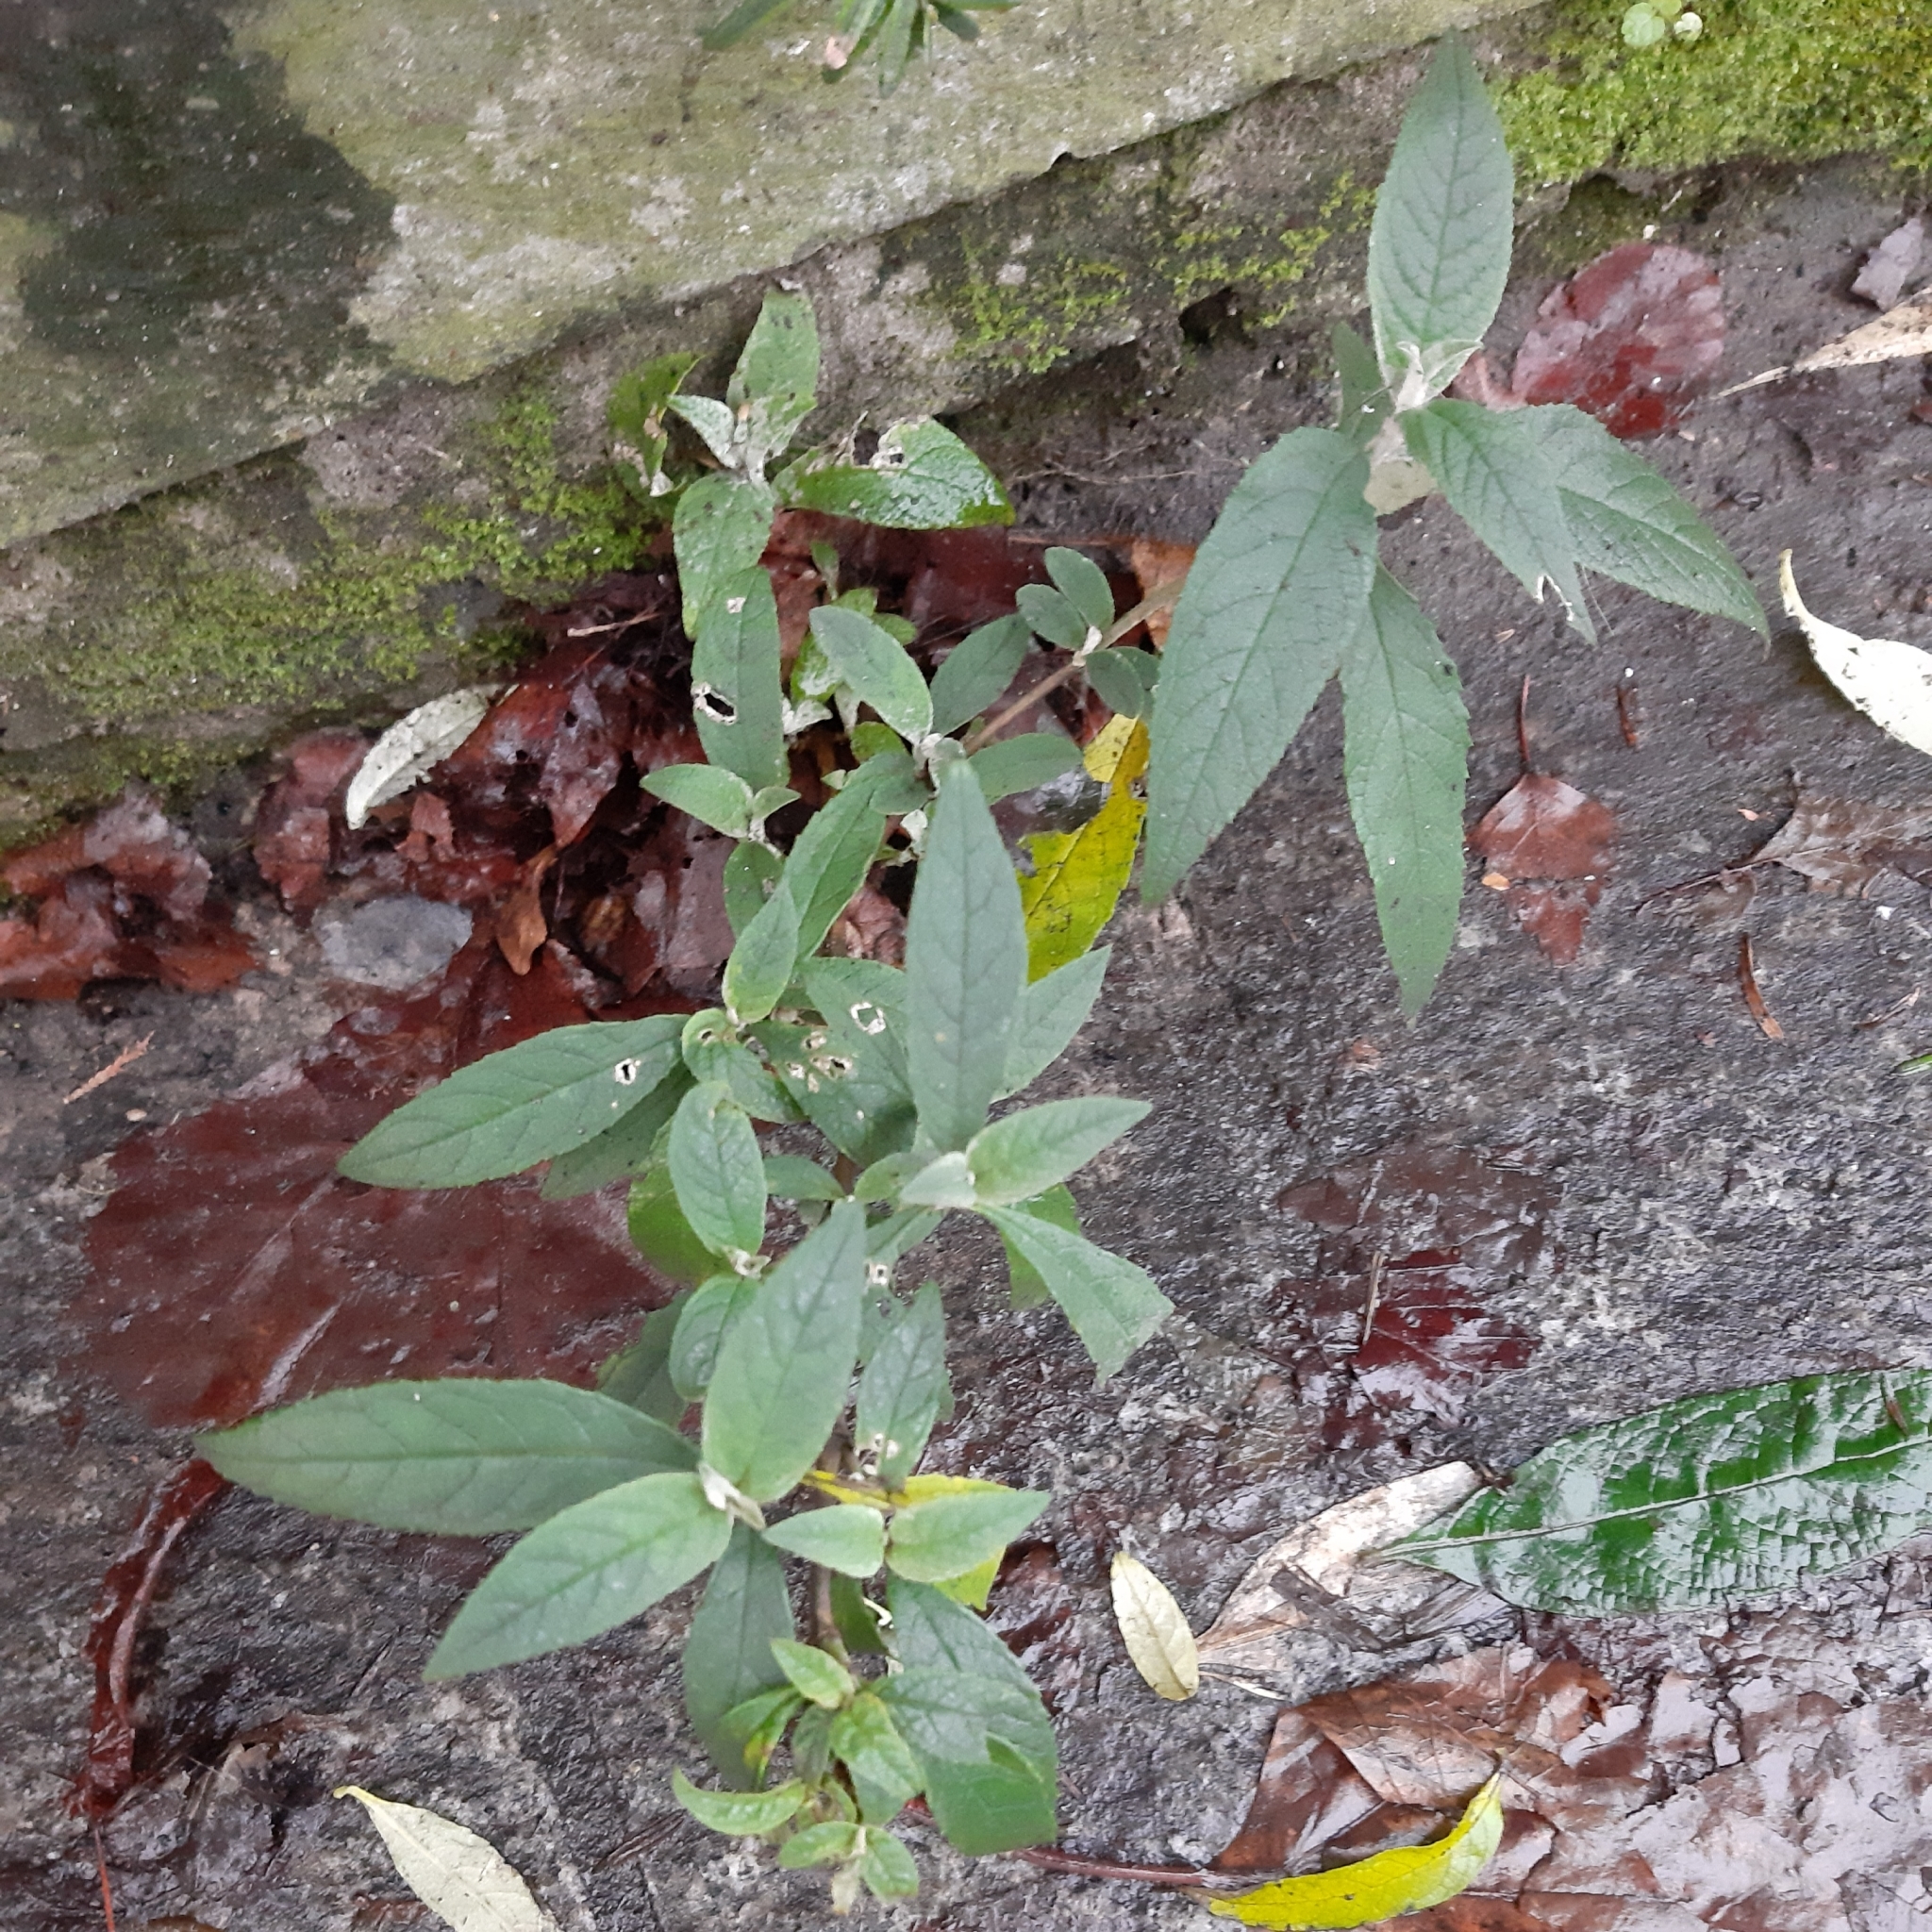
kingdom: Plantae
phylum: Tracheophyta
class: Magnoliopsida
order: Lamiales
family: Scrophulariaceae
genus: Buddleja
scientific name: Buddleja davidii
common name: Butterfly-bush
